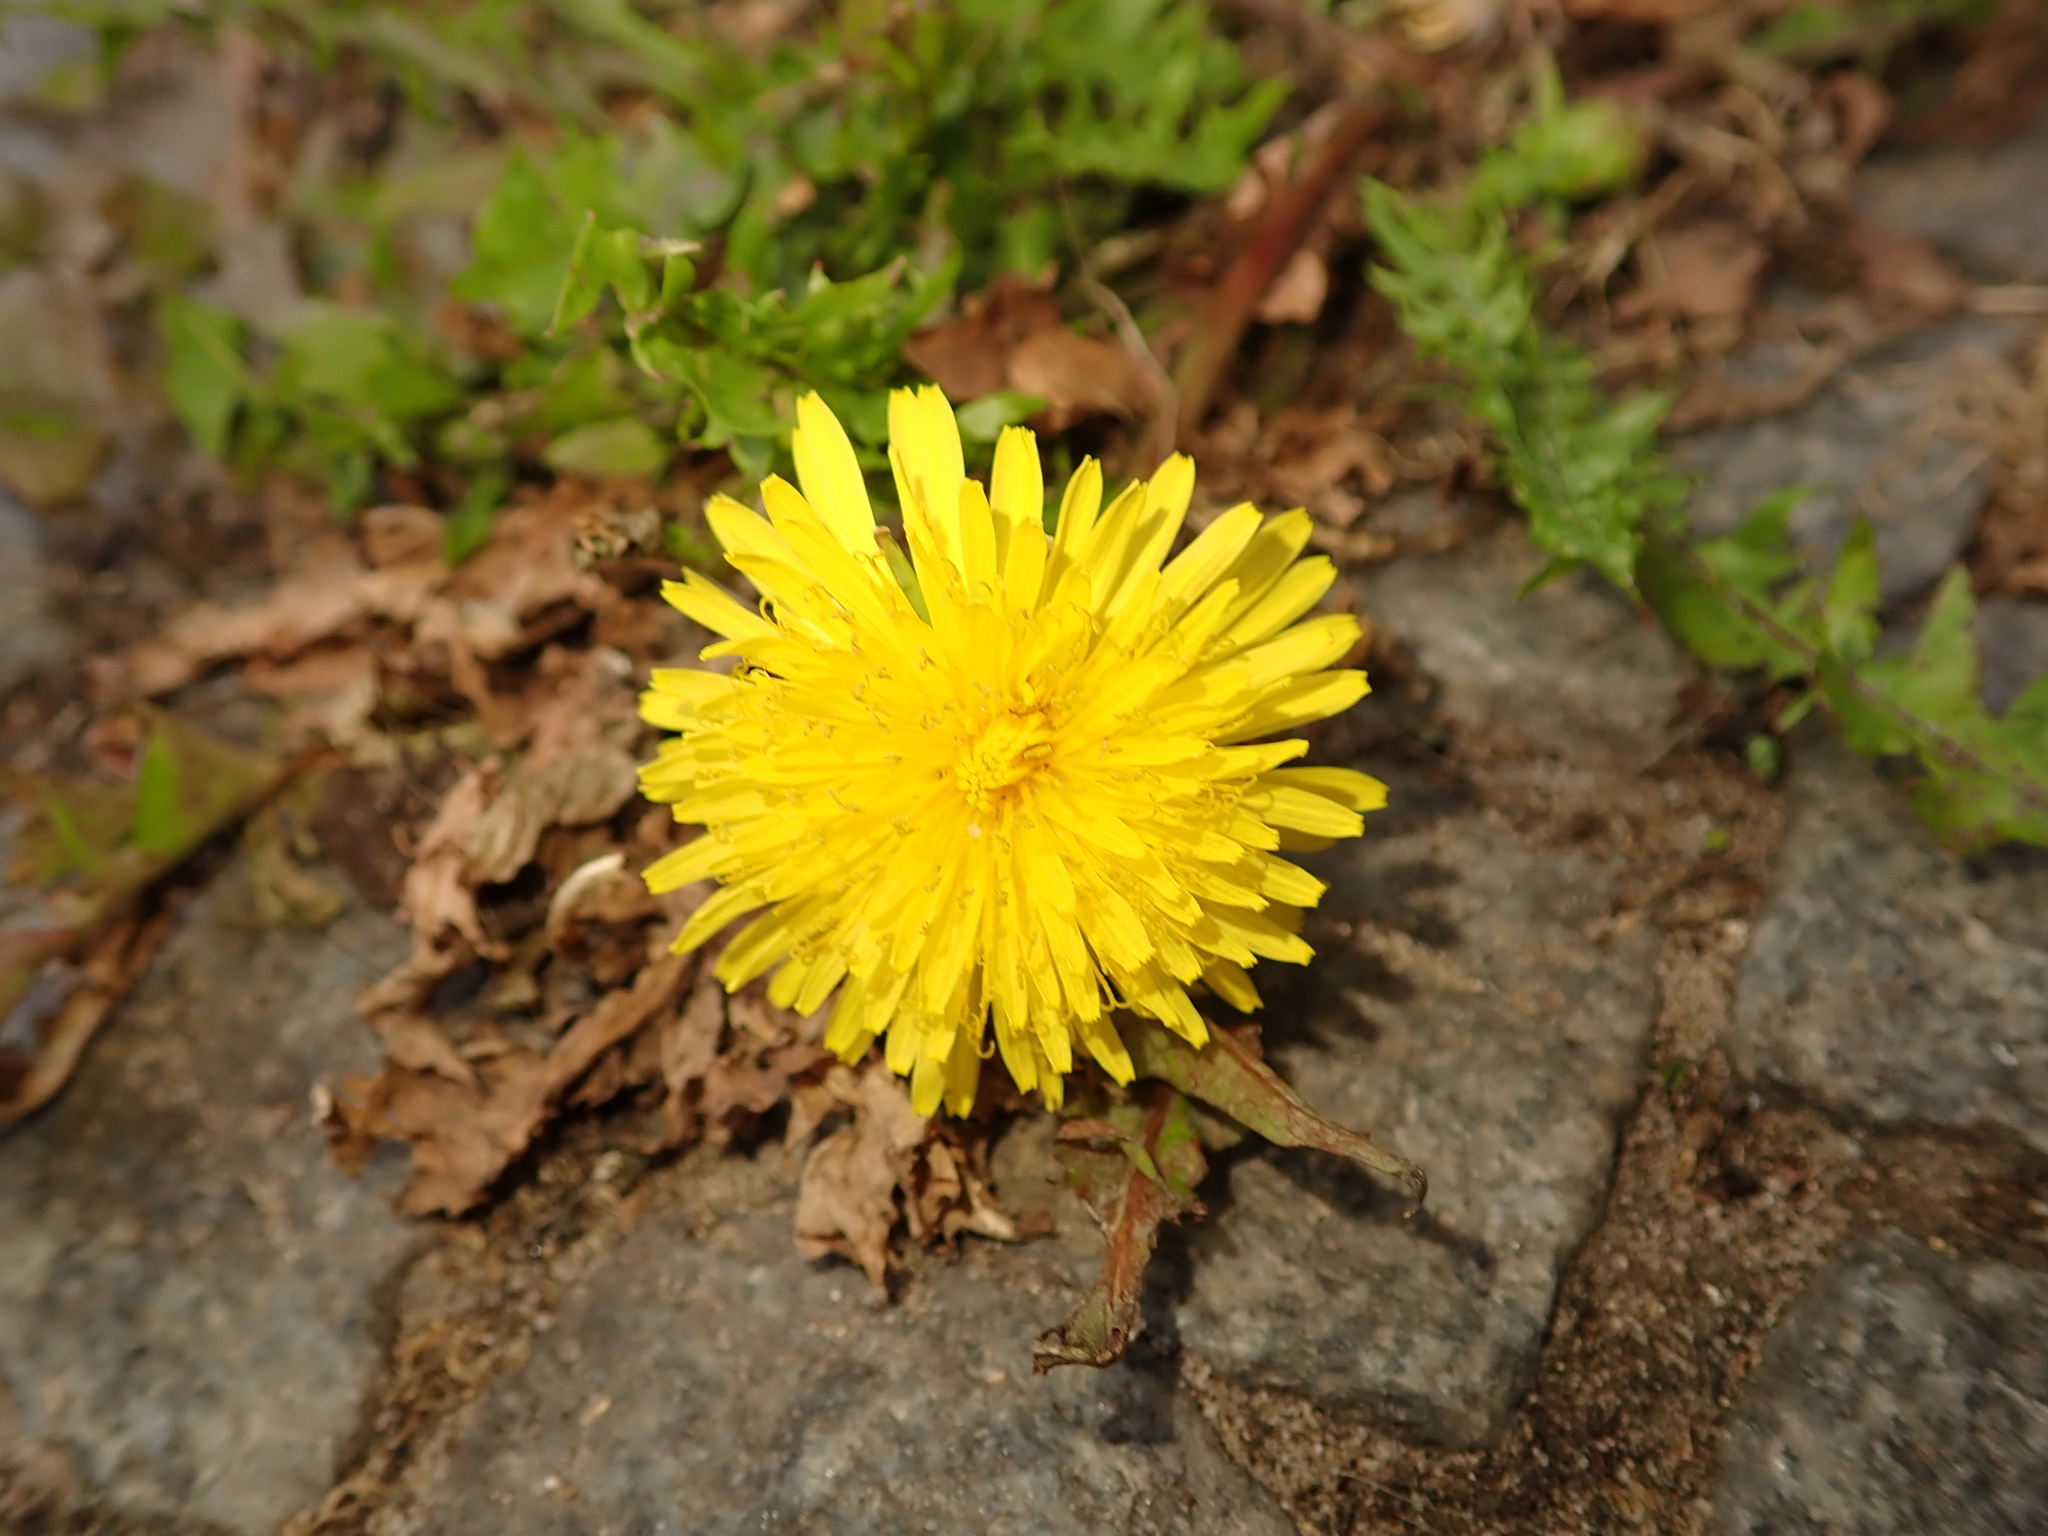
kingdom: Plantae
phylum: Tracheophyta
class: Magnoliopsida
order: Asterales
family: Asteraceae
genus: Taraxacum
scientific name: Taraxacum officinale
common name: Common dandelion
